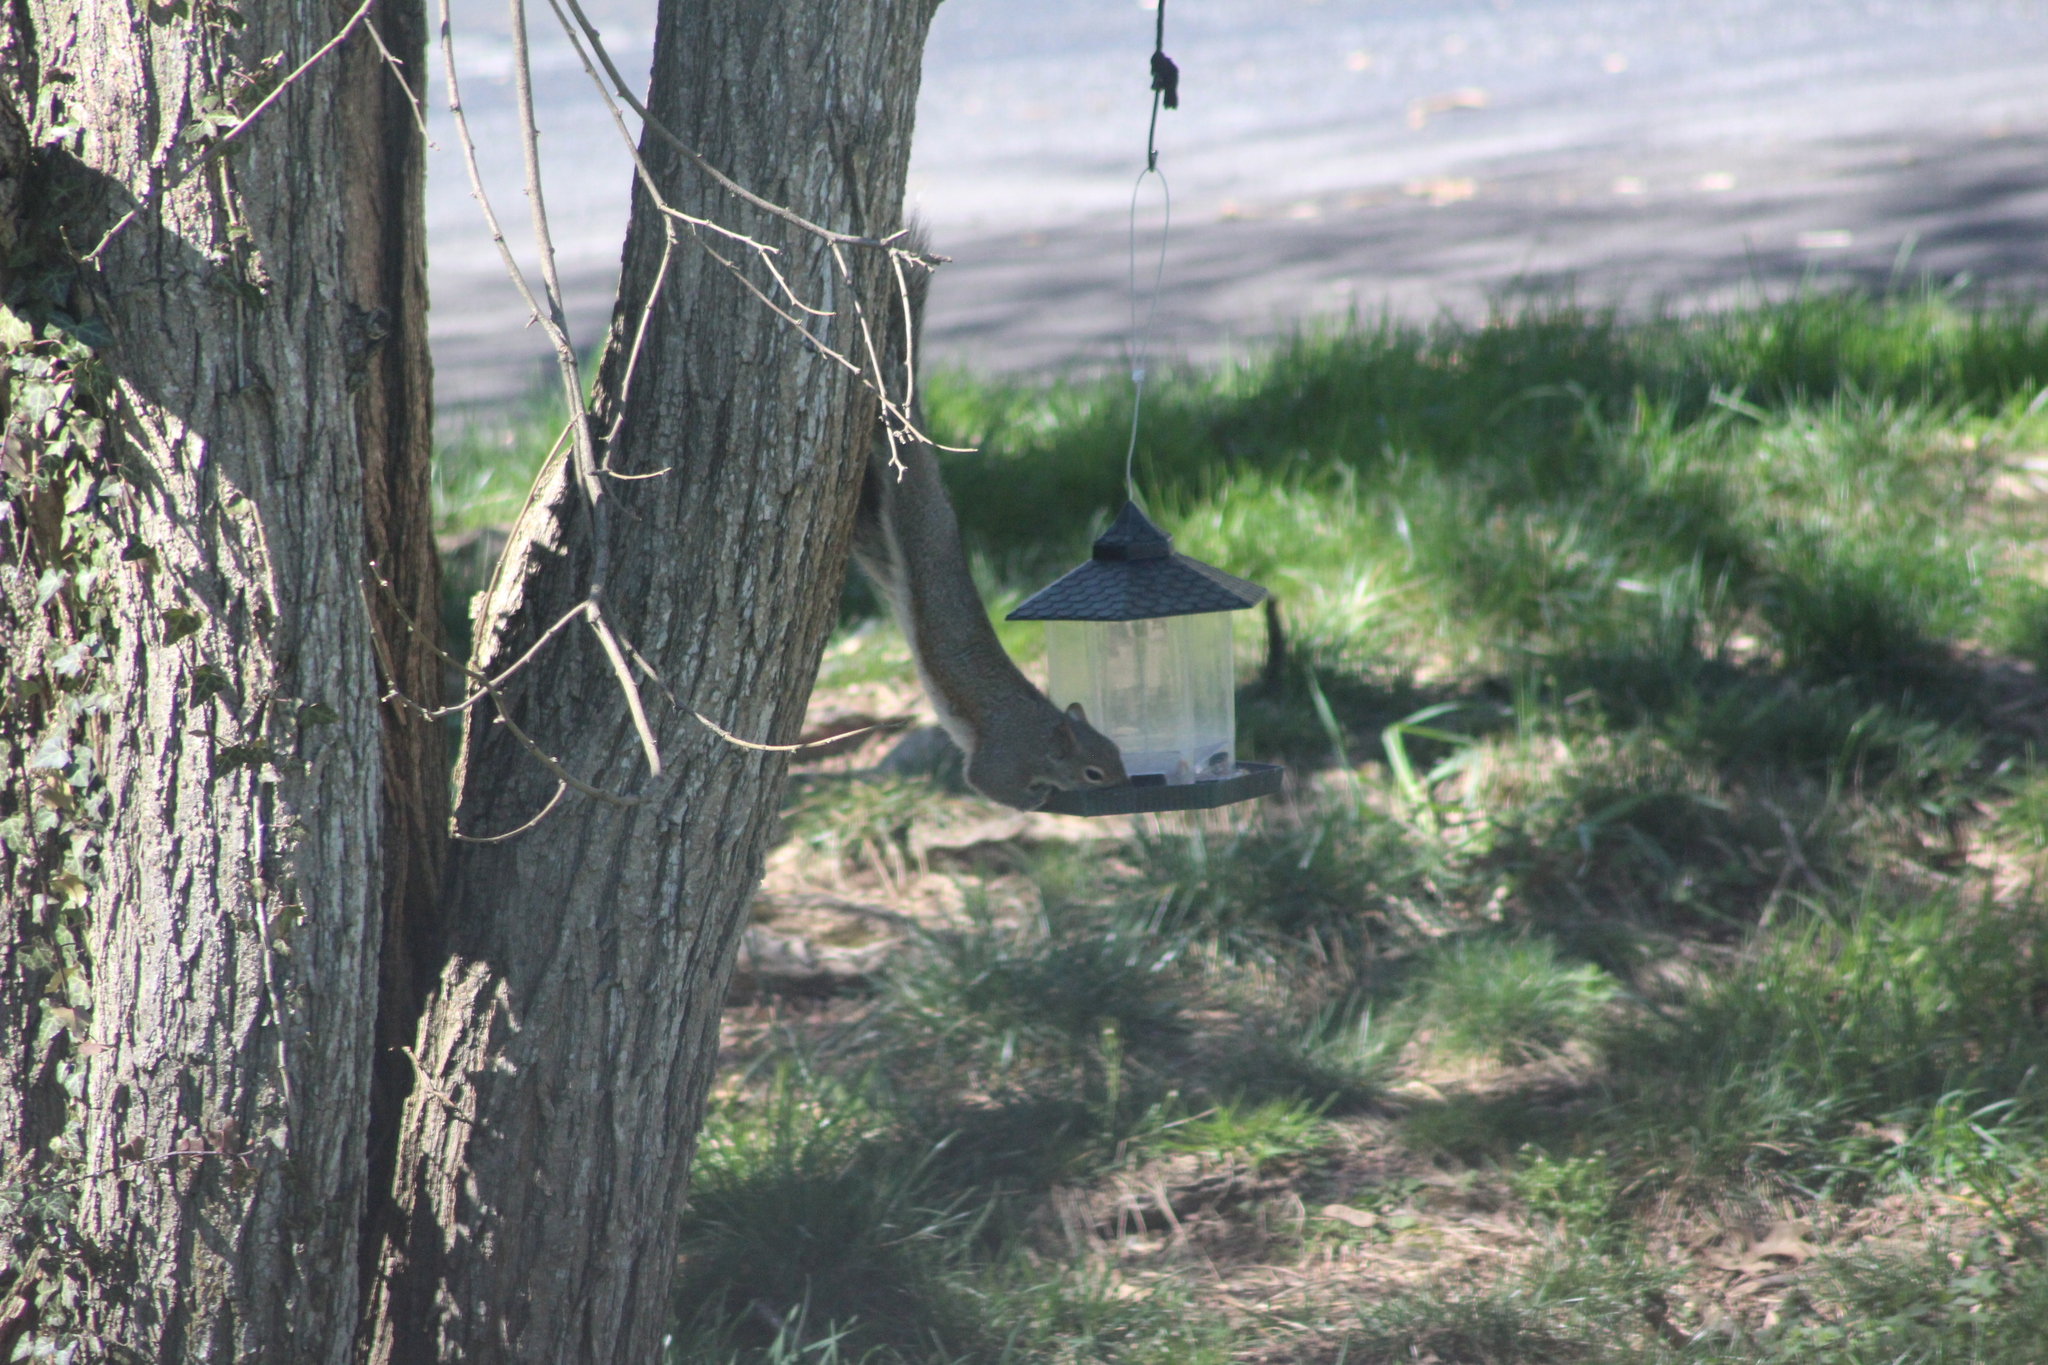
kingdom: Animalia
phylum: Chordata
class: Mammalia
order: Rodentia
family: Sciuridae
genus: Sciurus
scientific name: Sciurus carolinensis
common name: Eastern gray squirrel
